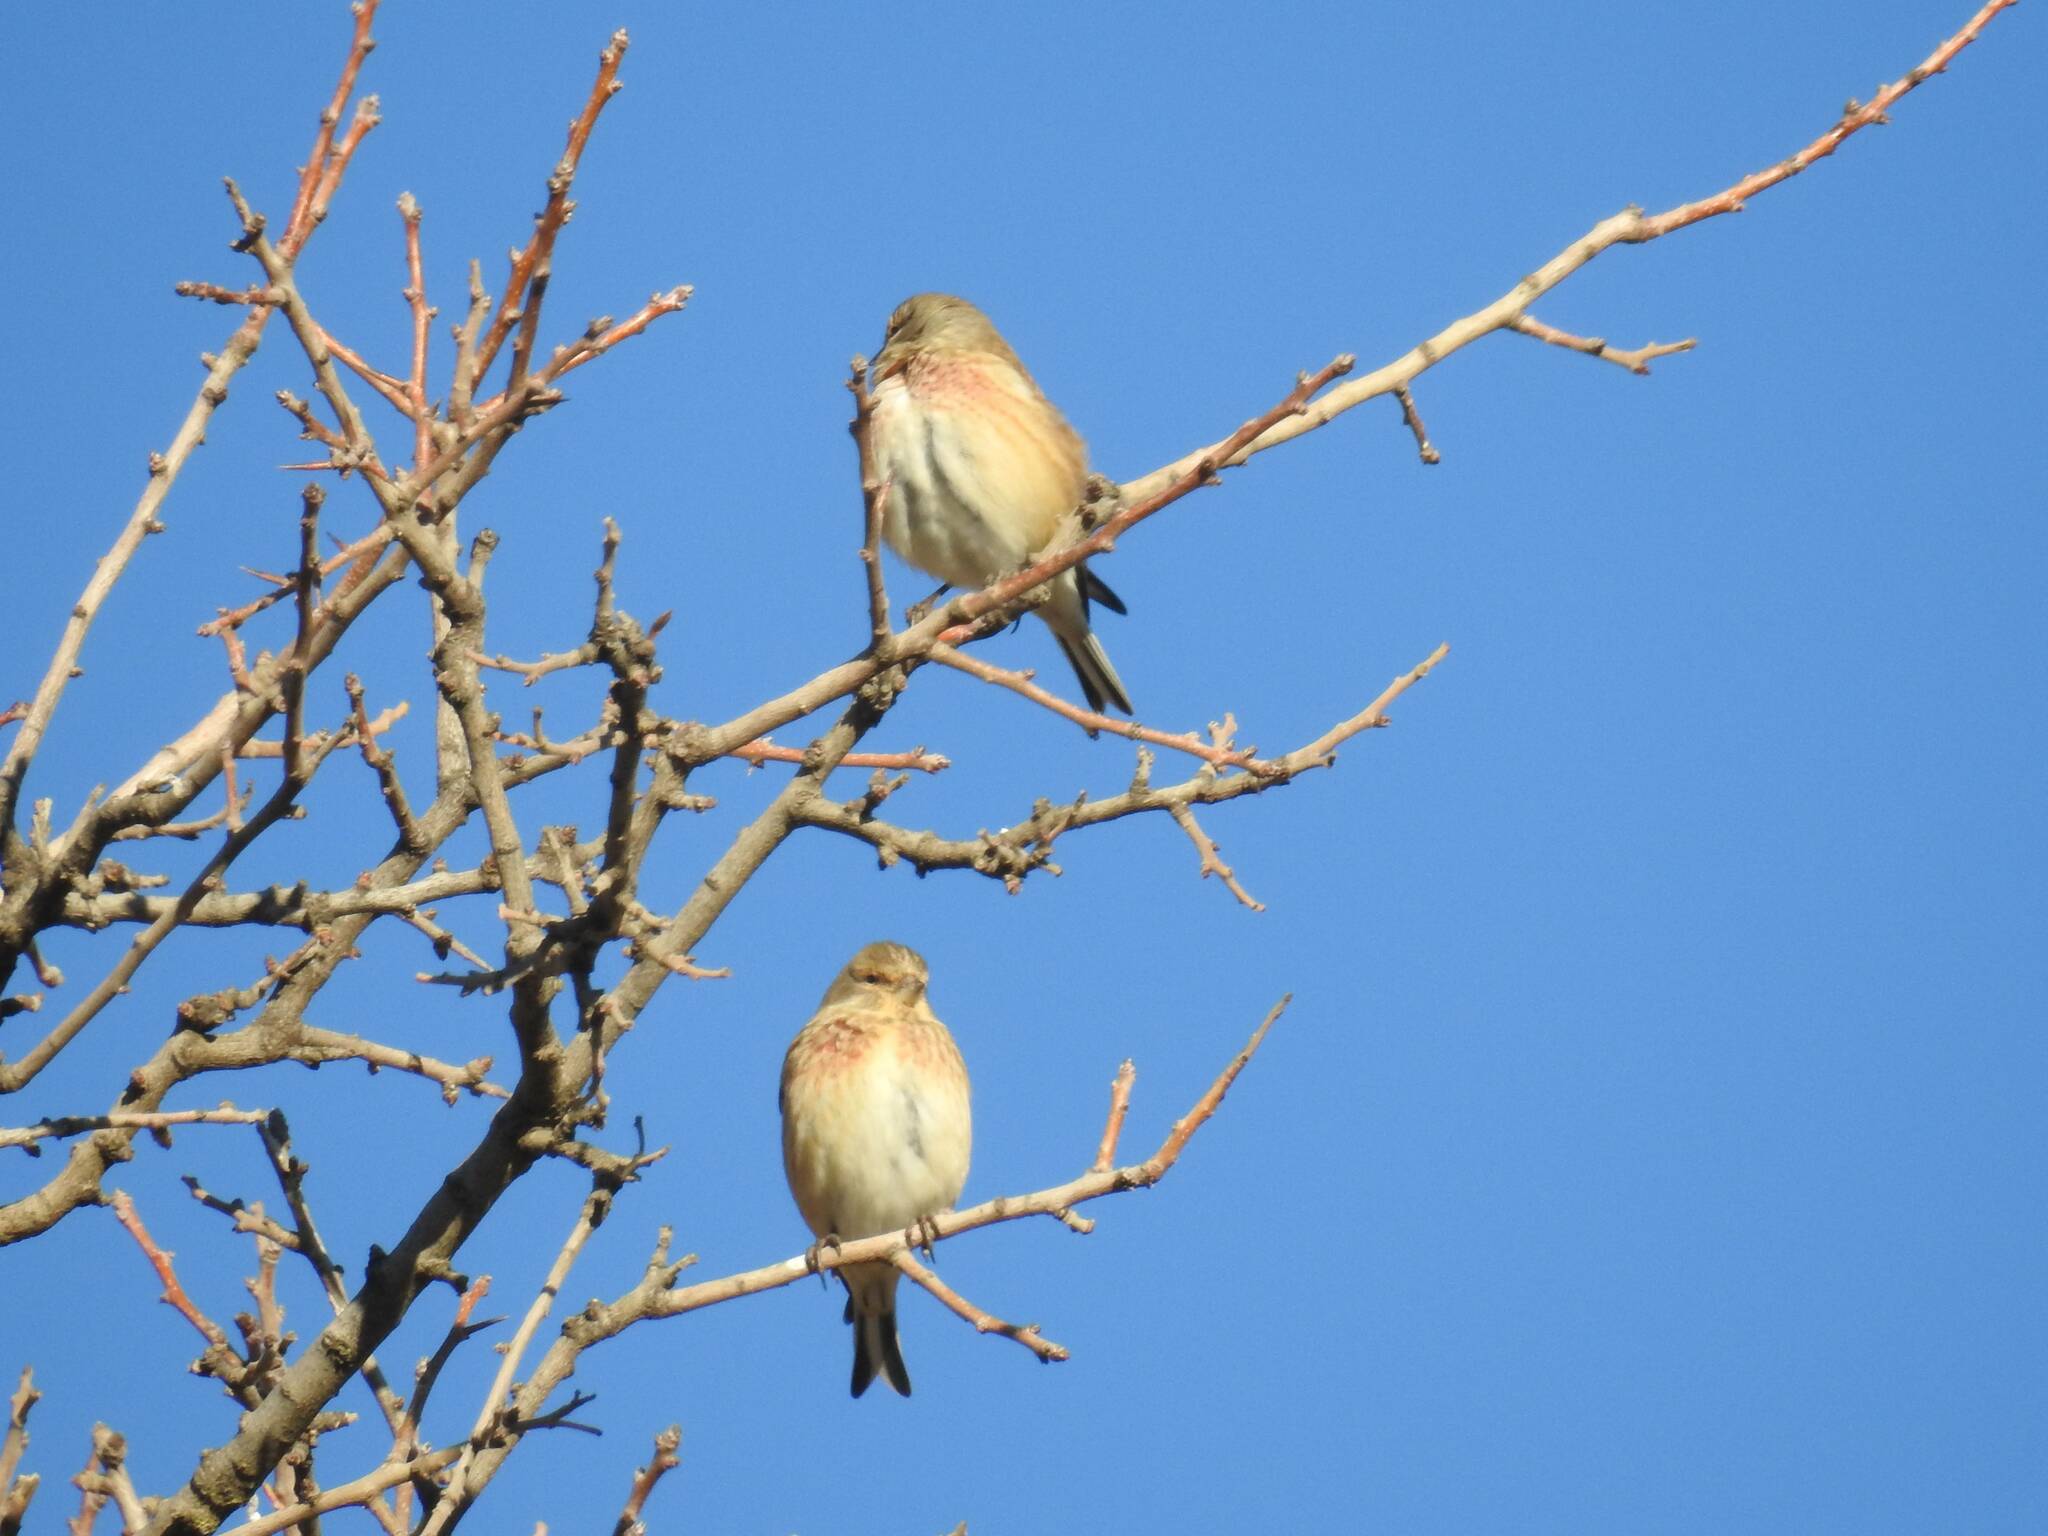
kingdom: Animalia
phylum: Chordata
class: Aves
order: Passeriformes
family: Fringillidae
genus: Linaria
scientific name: Linaria cannabina
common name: Common linnet
